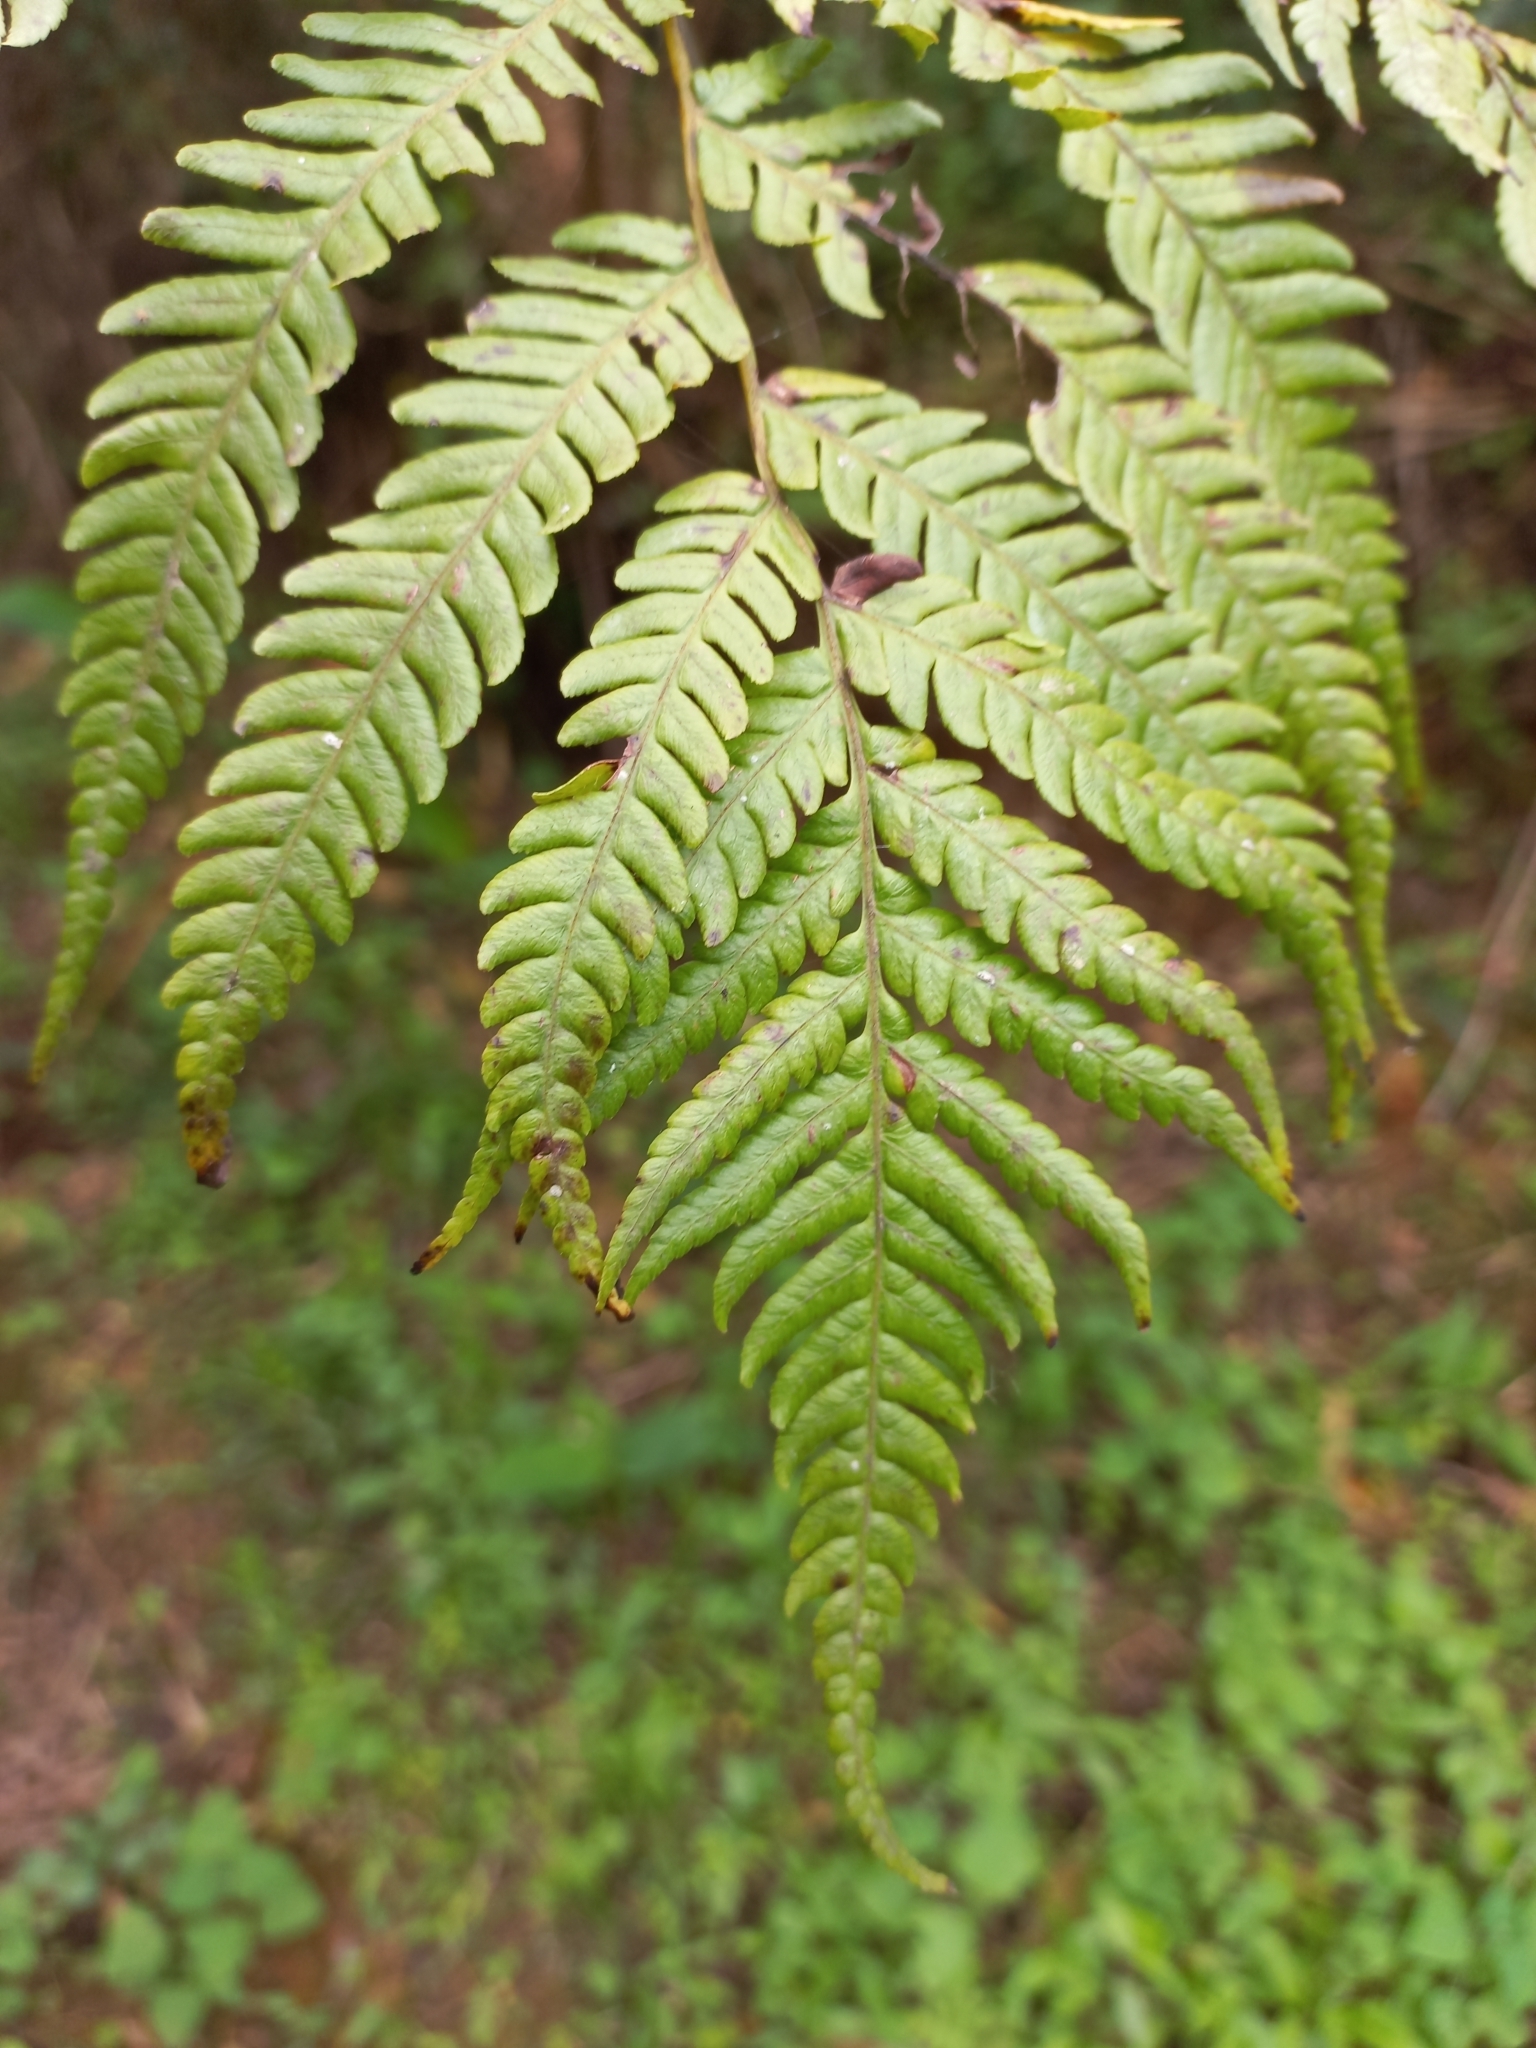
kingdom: Plantae
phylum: Tracheophyta
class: Polypodiopsida
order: Cyatheales
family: Cyatheaceae
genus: Sphaeropteris
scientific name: Sphaeropteris cooperi
